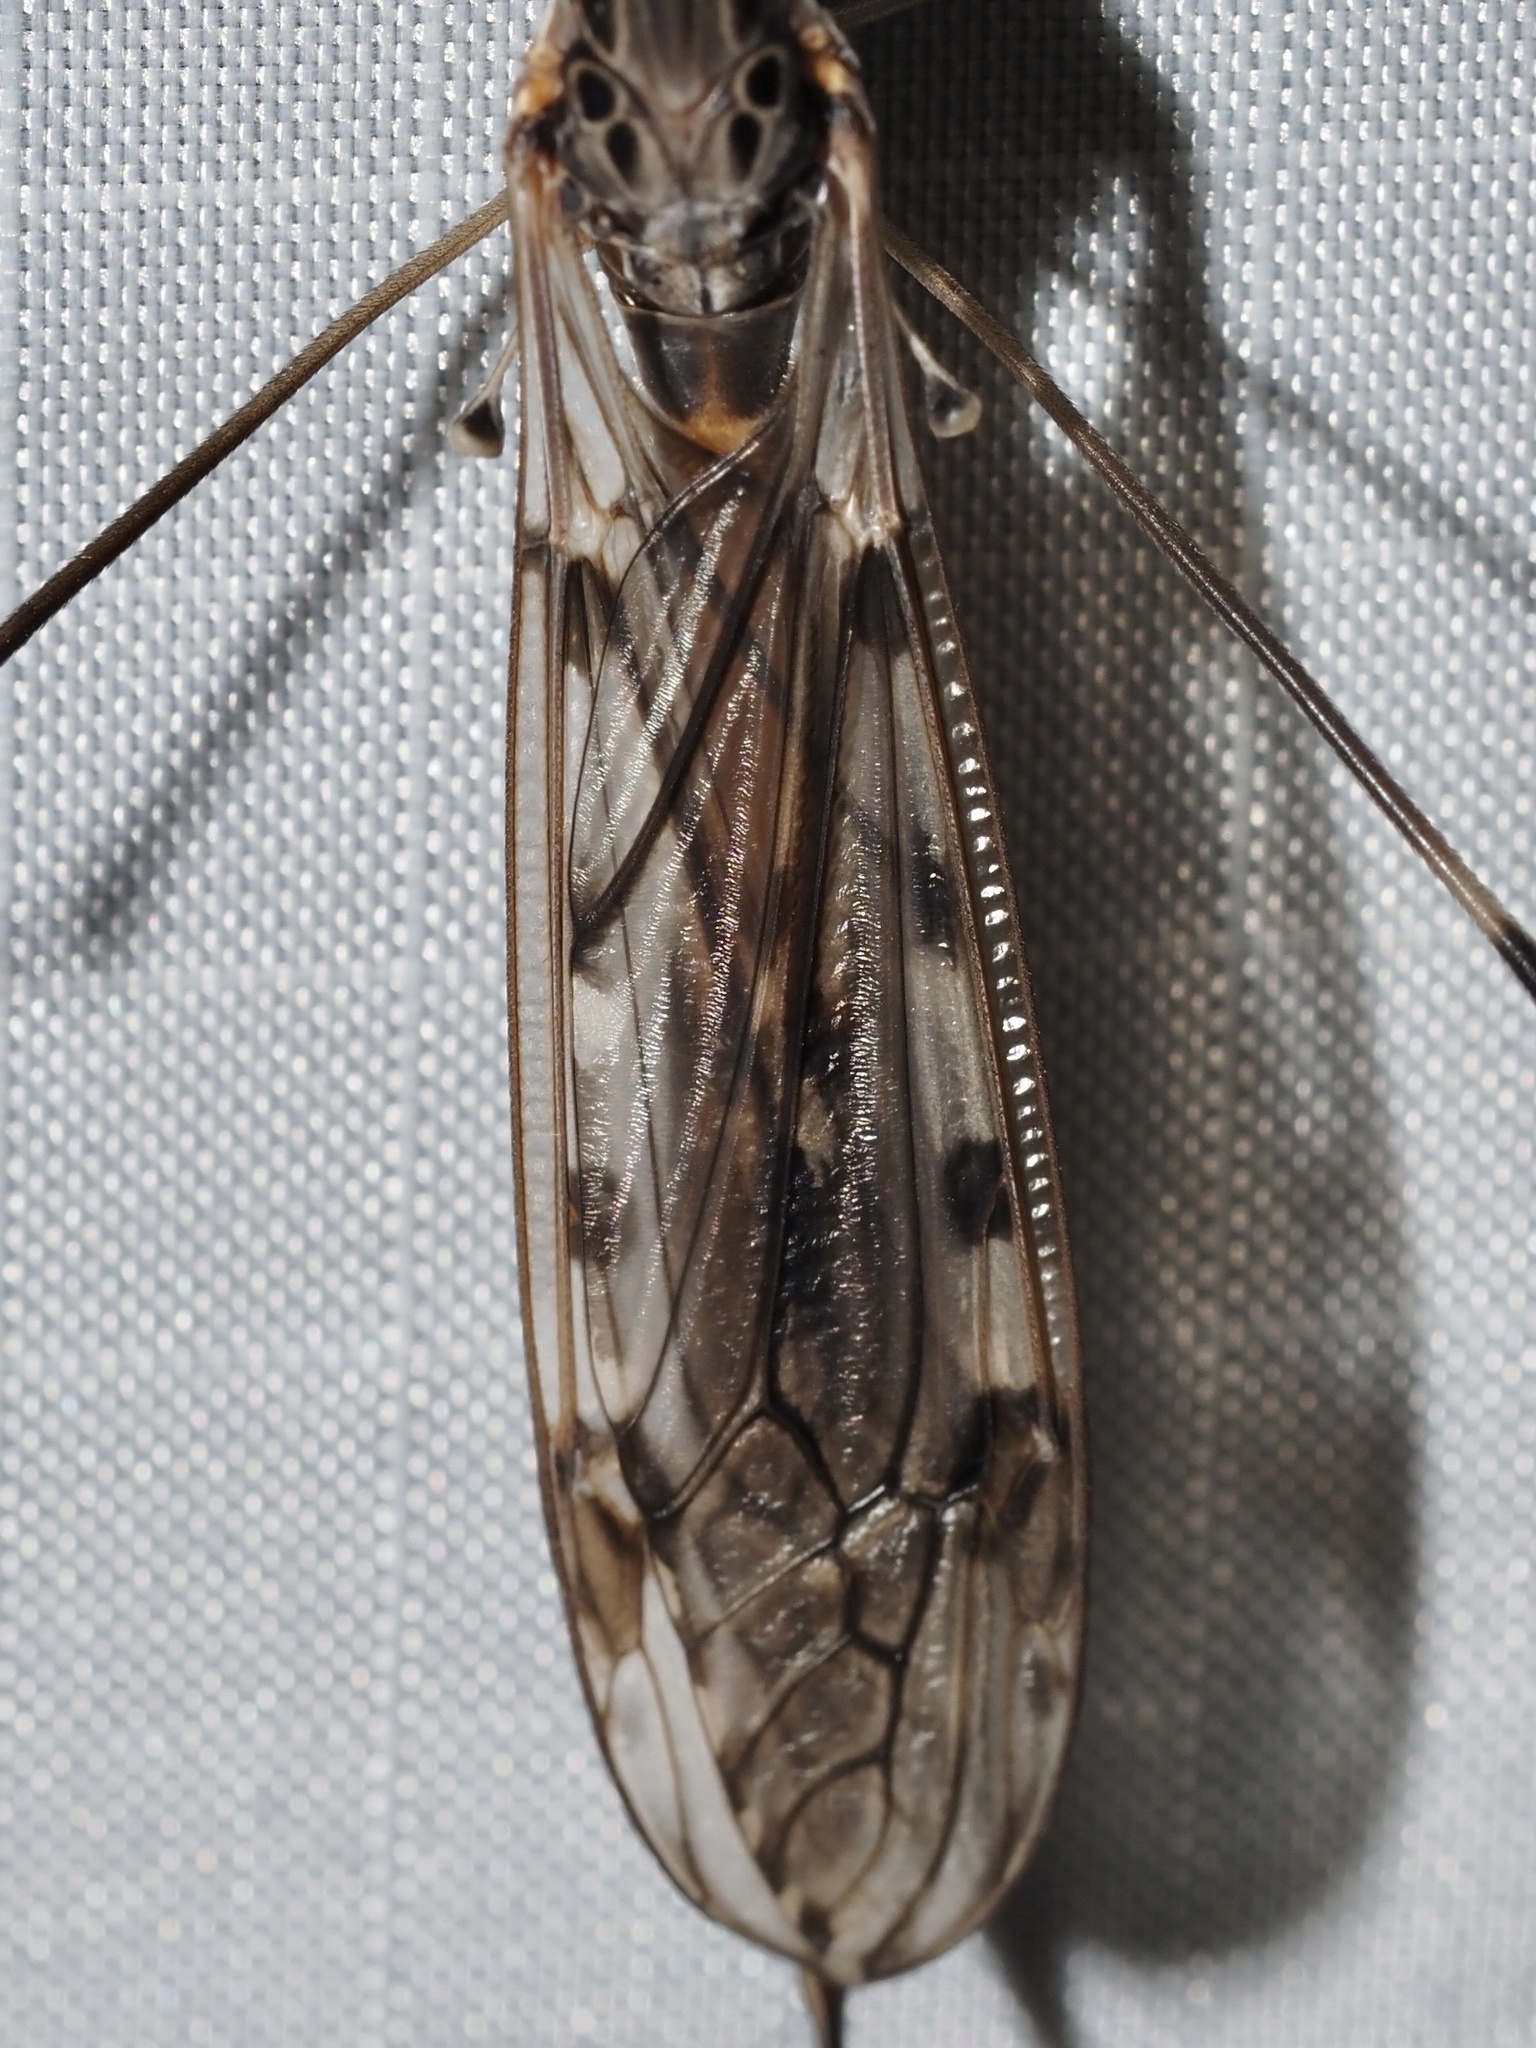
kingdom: Animalia
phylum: Arthropoda
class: Insecta
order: Diptera
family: Tipulidae
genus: Tipula
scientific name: Tipula abdominalis
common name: Giant crane fly
